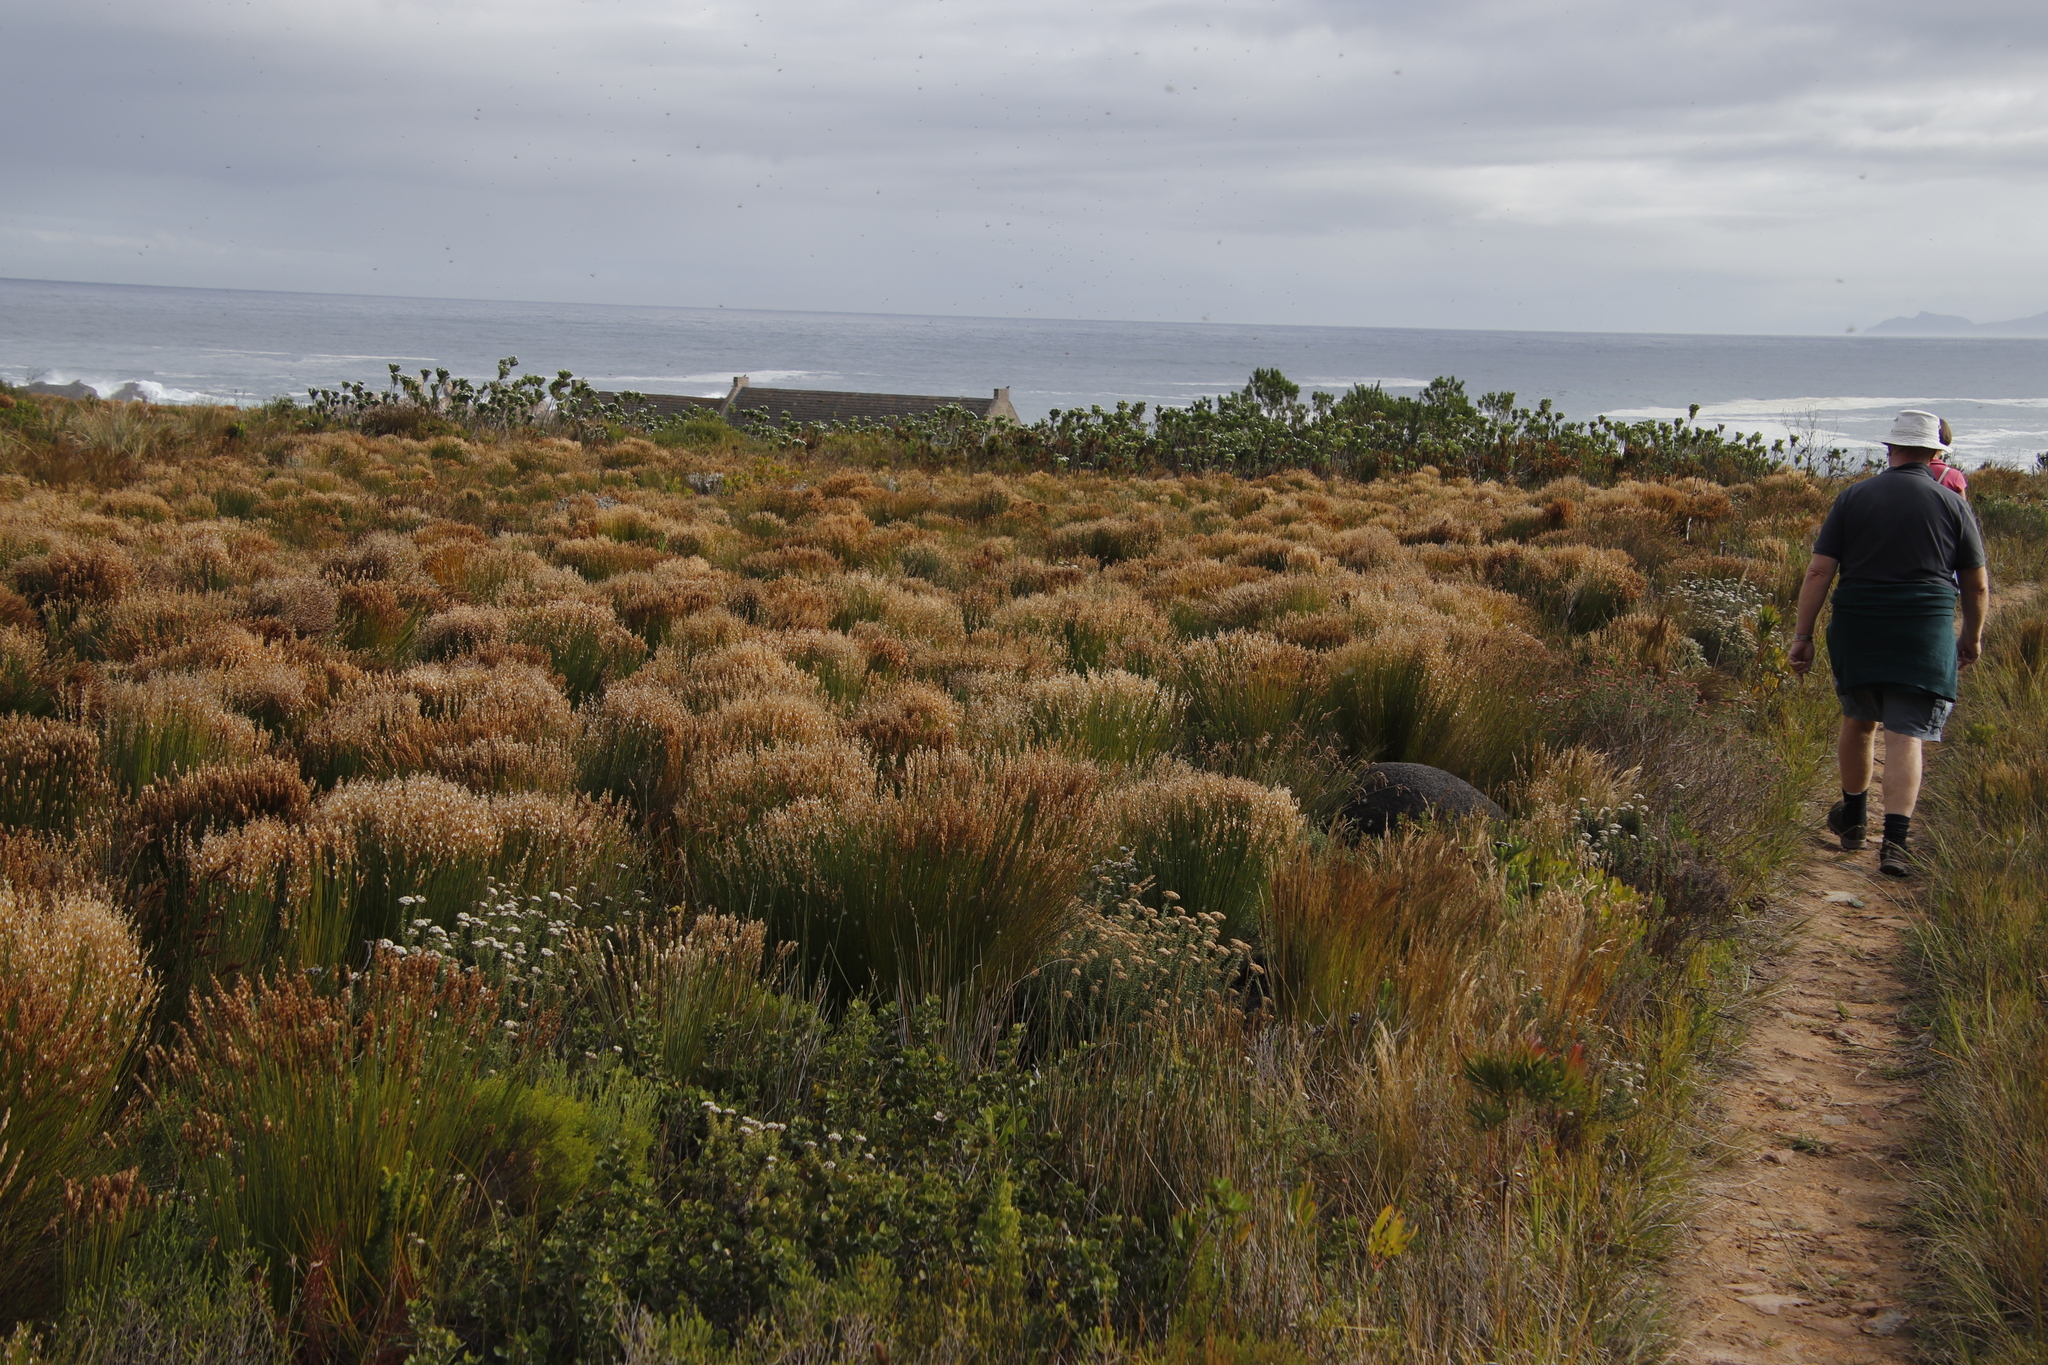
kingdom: Plantae
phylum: Tracheophyta
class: Liliopsida
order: Poales
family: Restionaceae
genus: Elegia
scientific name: Elegia stipularis
